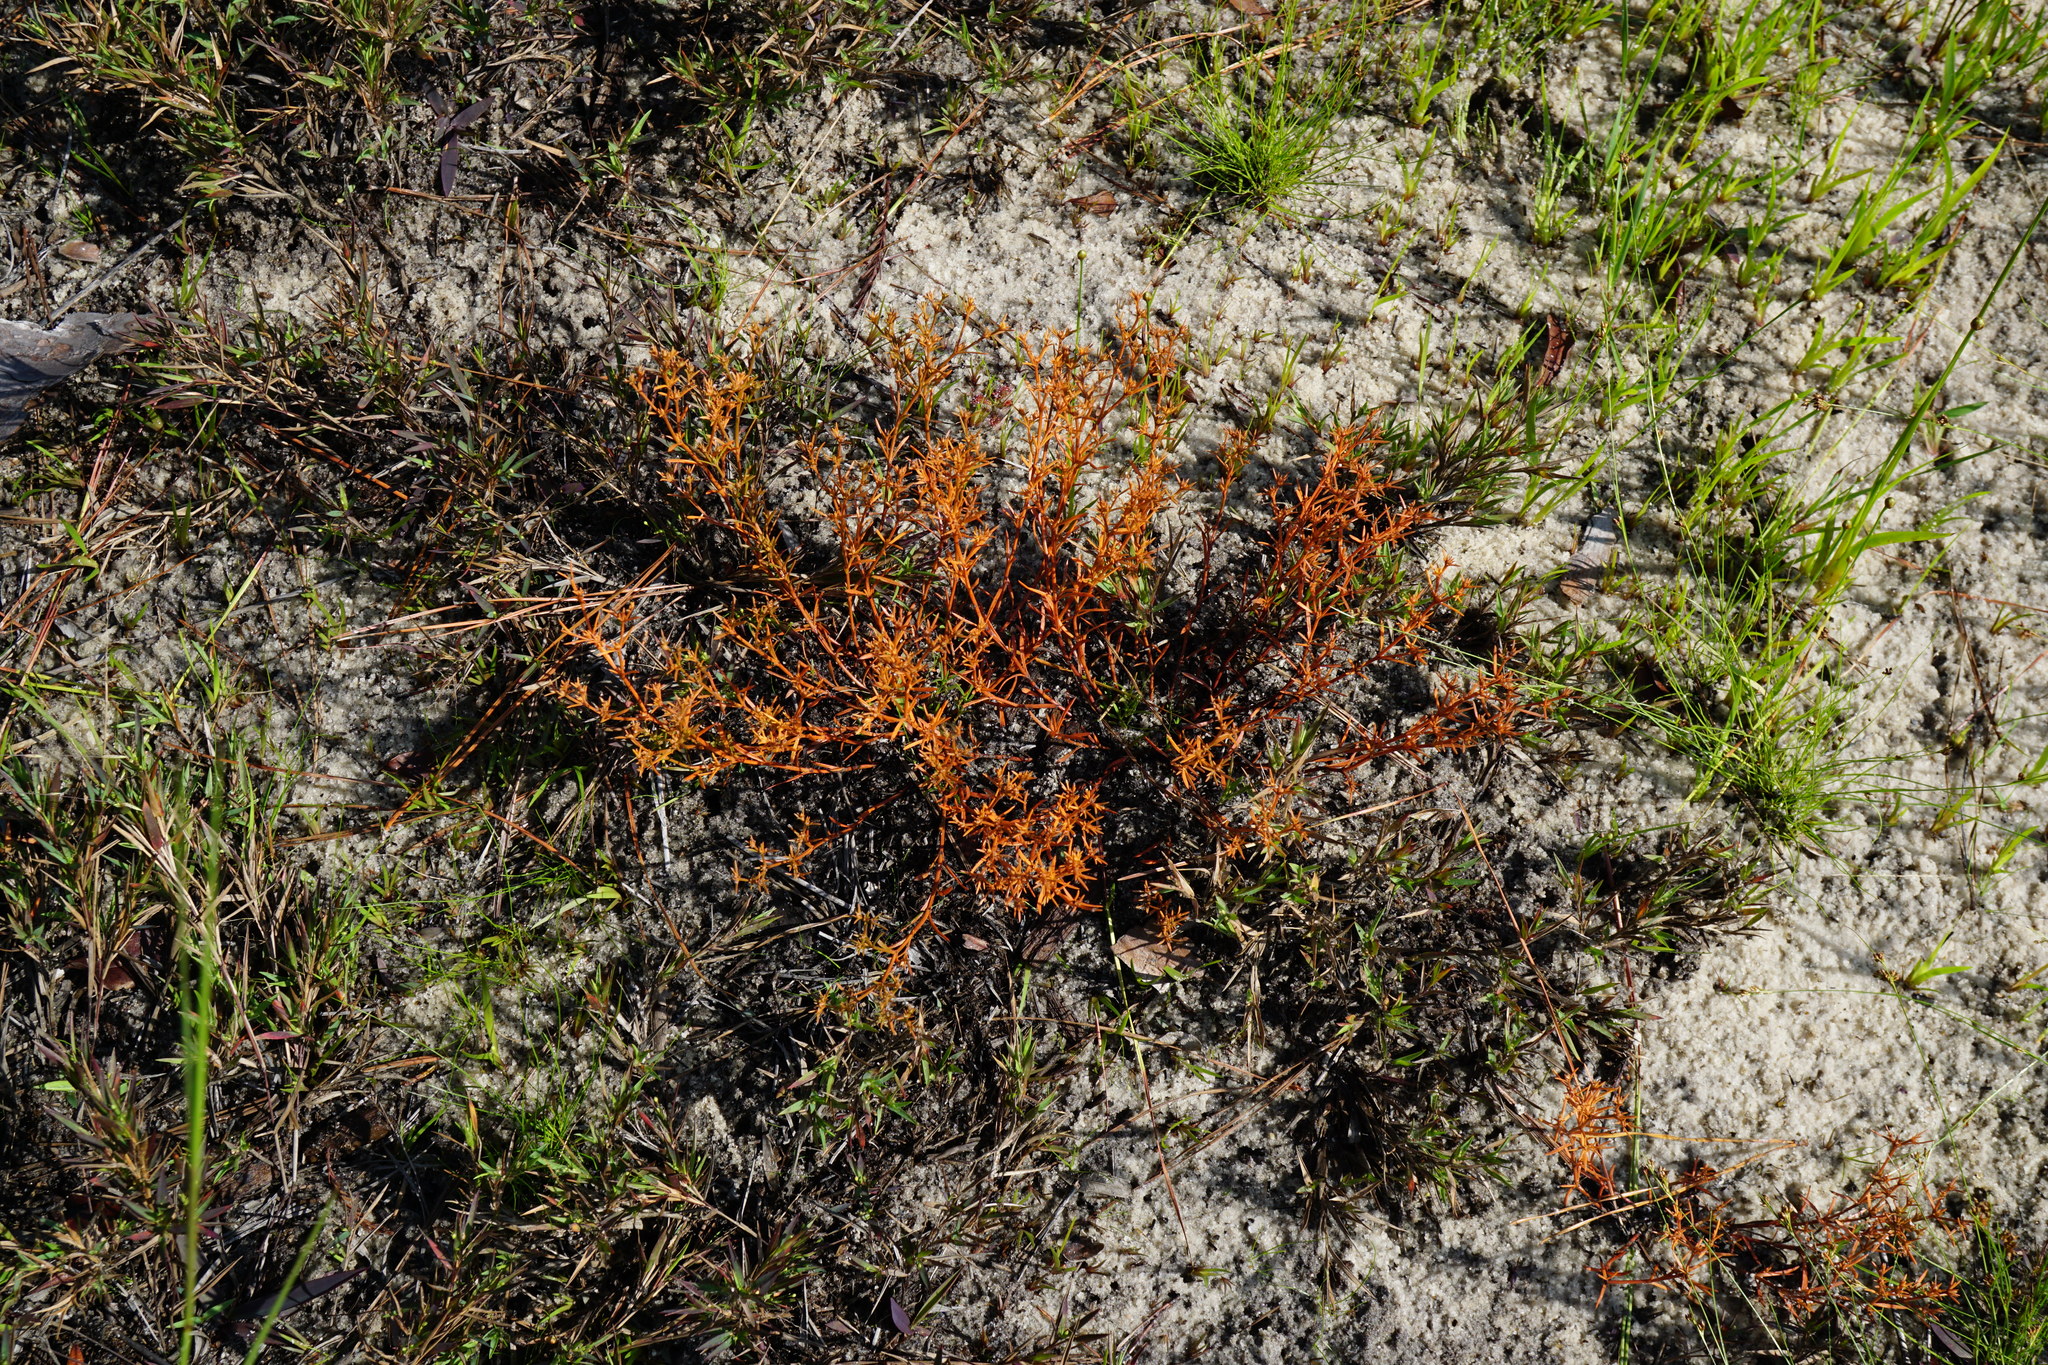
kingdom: Plantae
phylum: Tracheophyta
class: Magnoliopsida
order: Lamiales
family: Tetrachondraceae
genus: Polypremum
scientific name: Polypremum procumbens
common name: Juniper-leaf
